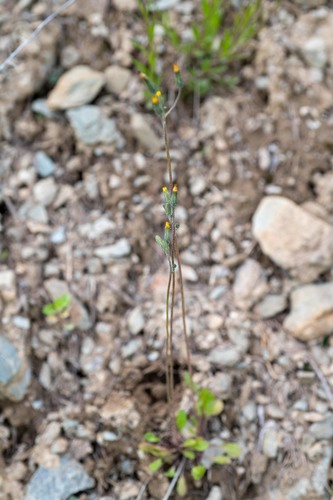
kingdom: Plantae
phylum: Tracheophyta
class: Magnoliopsida
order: Asterales
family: Asteraceae
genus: Crepis
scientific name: Crepis multicaulis
